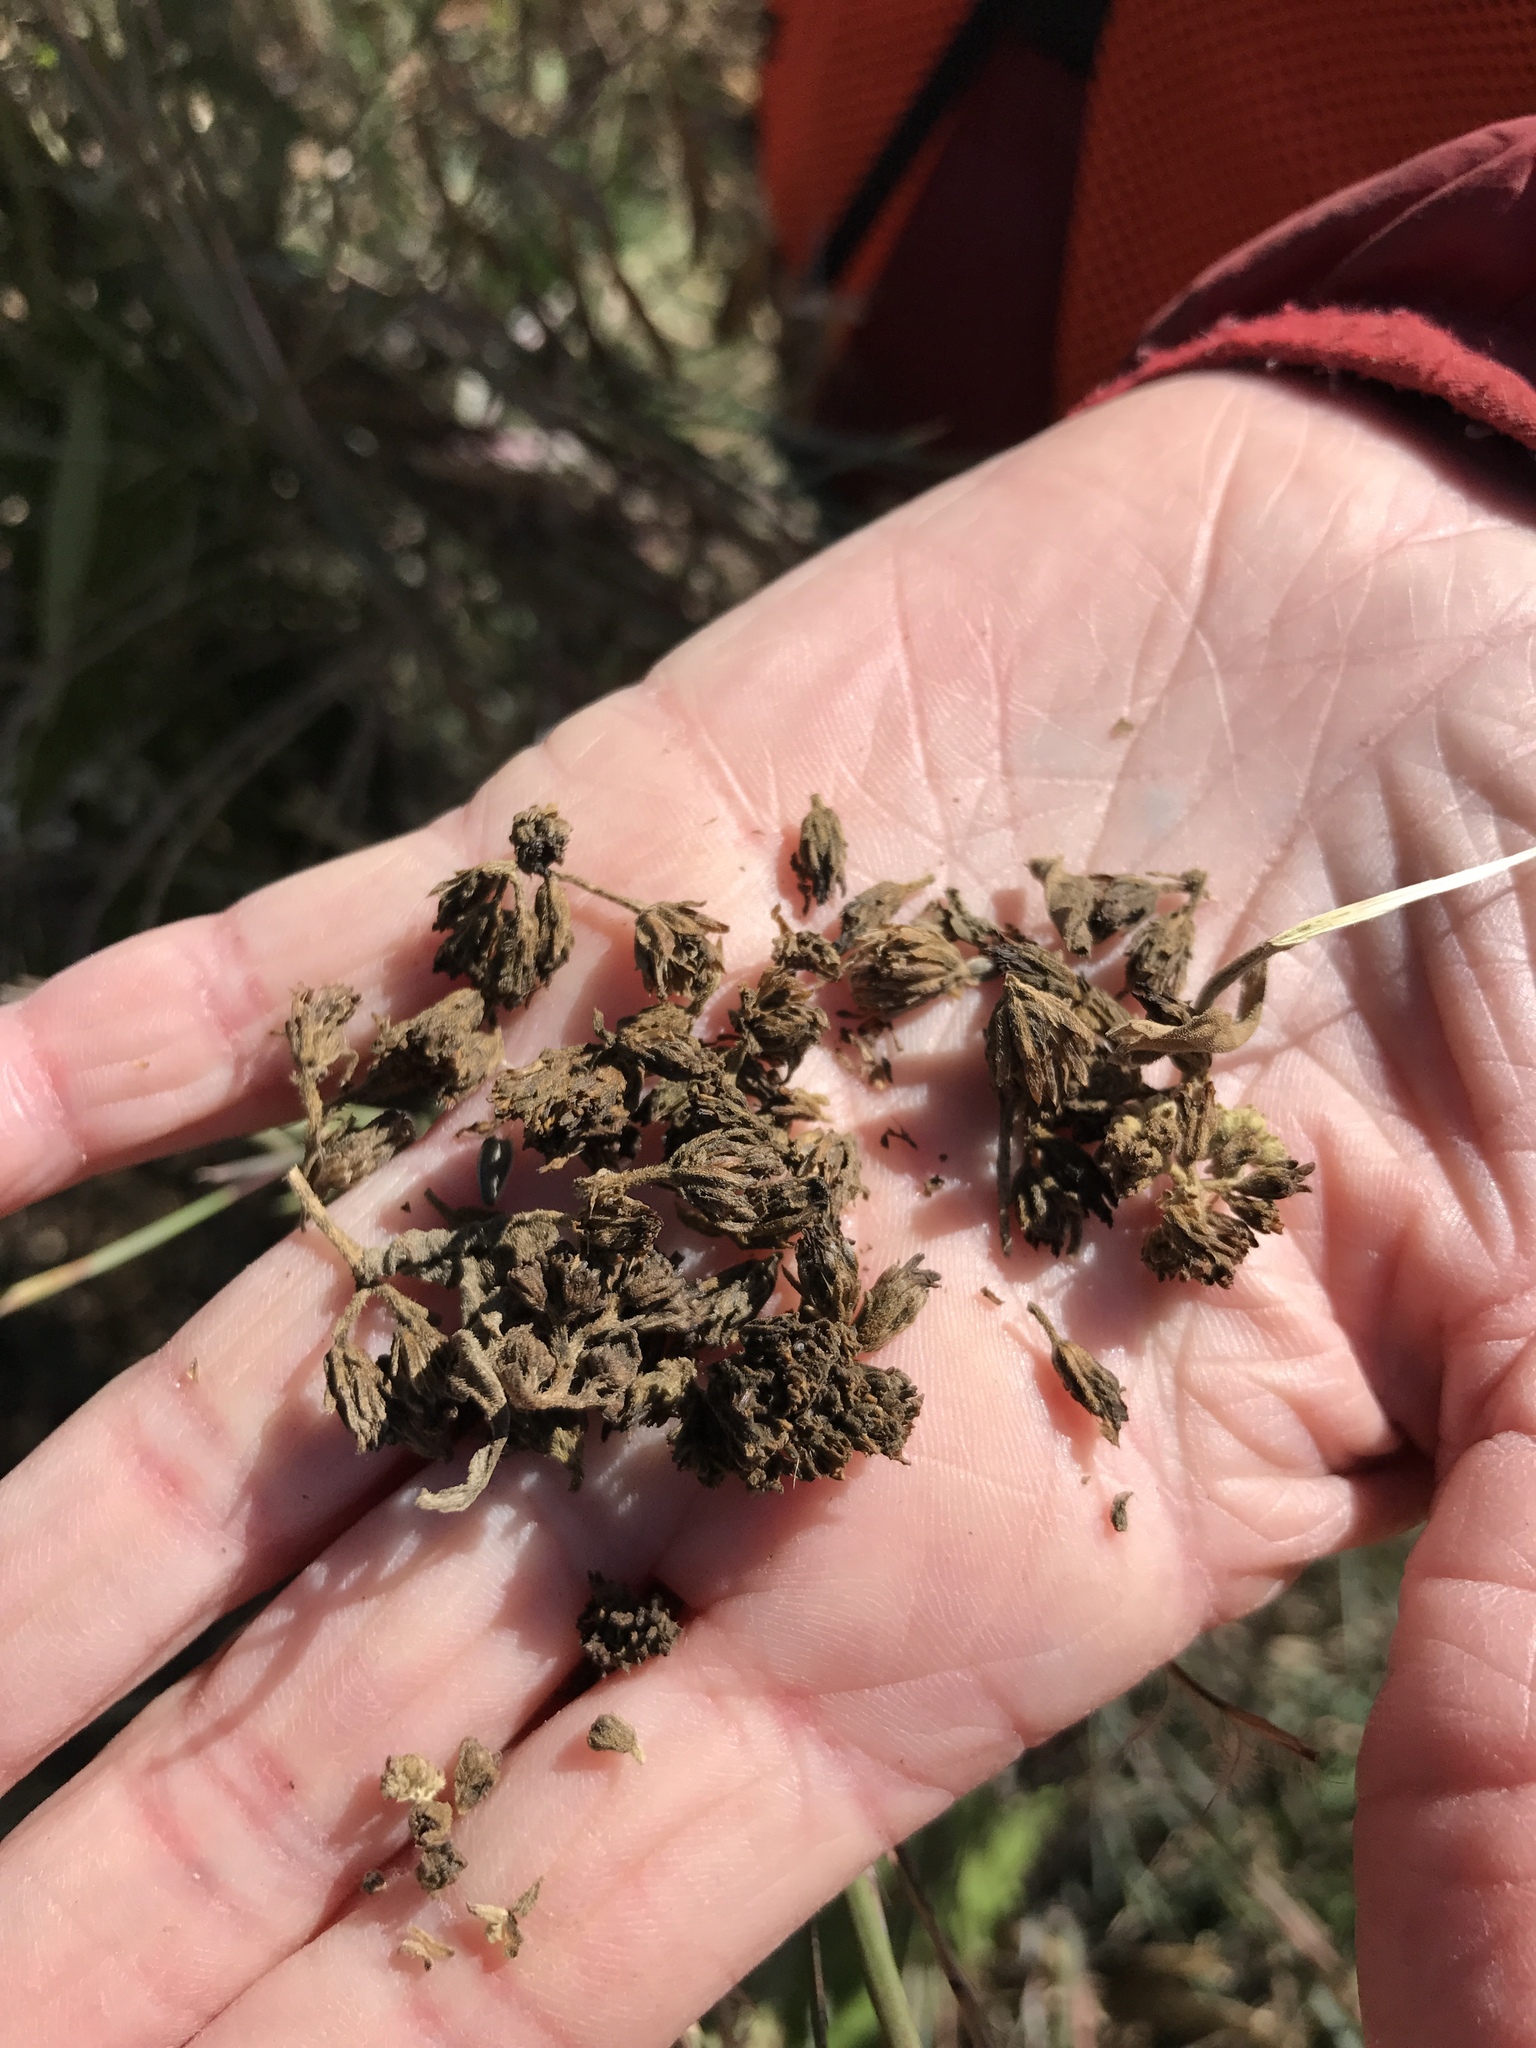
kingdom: Plantae
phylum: Tracheophyta
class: Magnoliopsida
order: Asterales
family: Asteraceae
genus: Verbesina
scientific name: Verbesina virginica
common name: Frostweed
